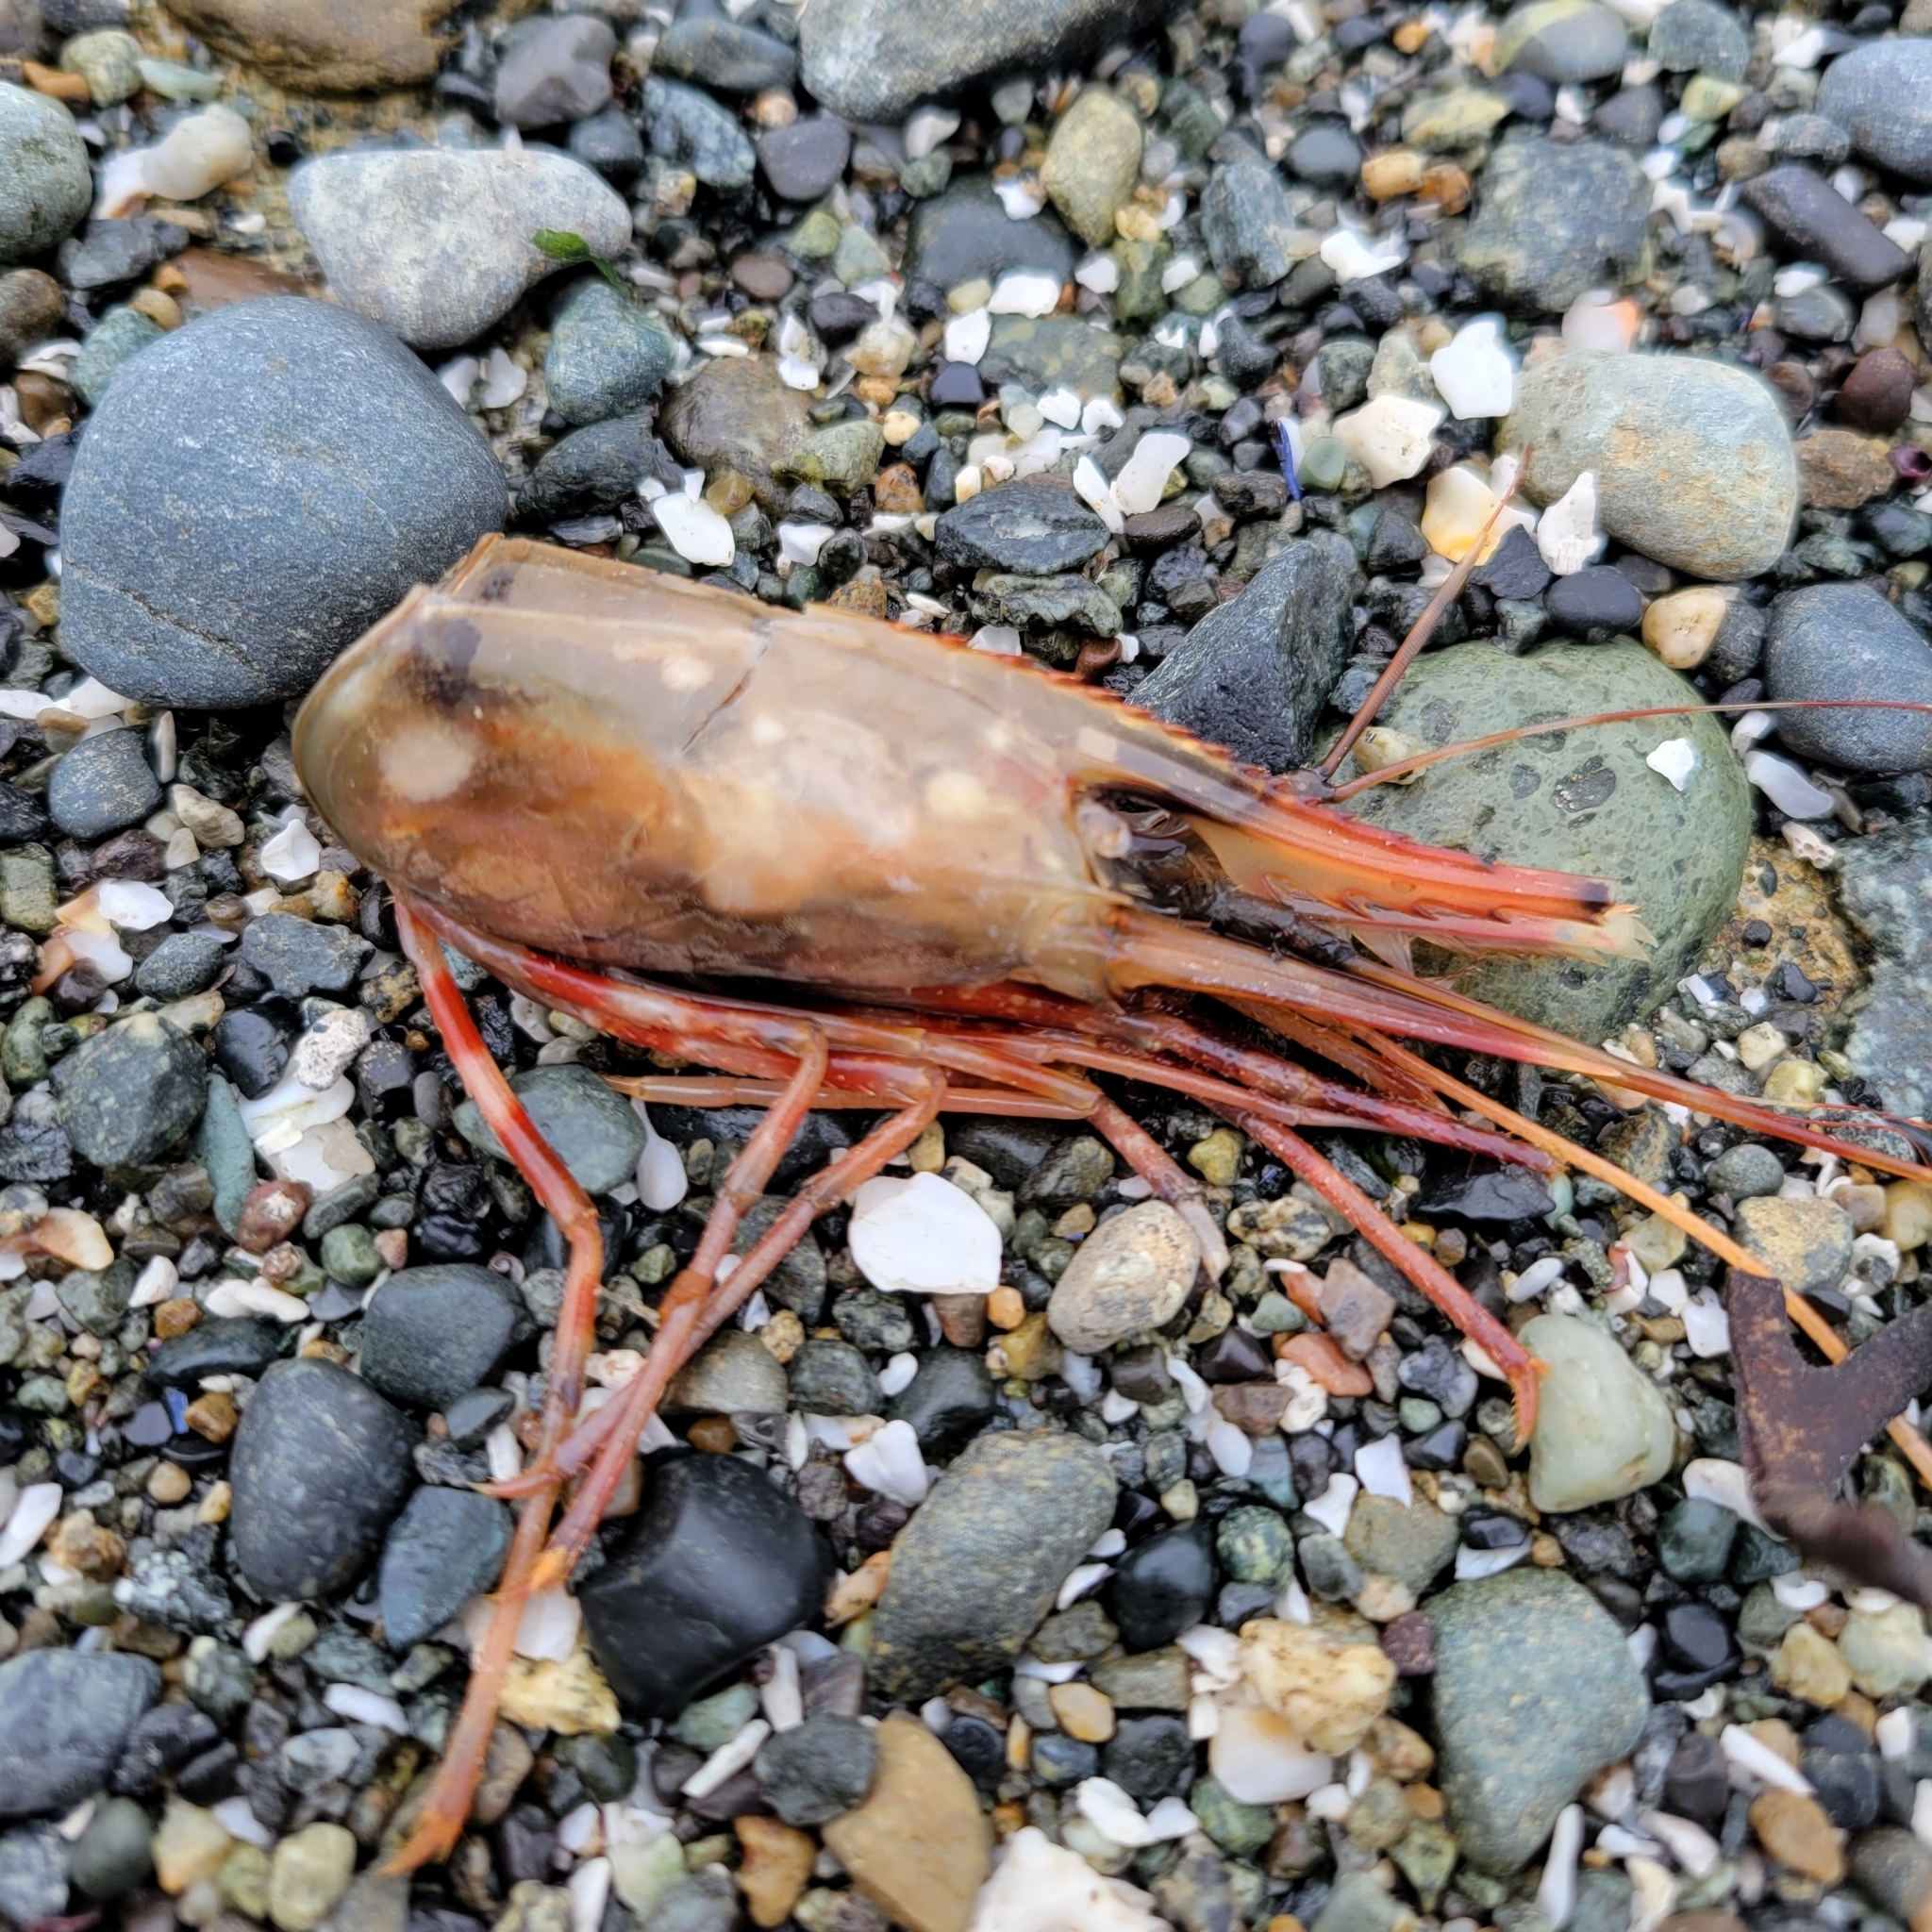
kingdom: Animalia
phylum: Arthropoda
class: Malacostraca
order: Decapoda
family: Pandalidae
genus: Pandalus
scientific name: Pandalus platyceros
